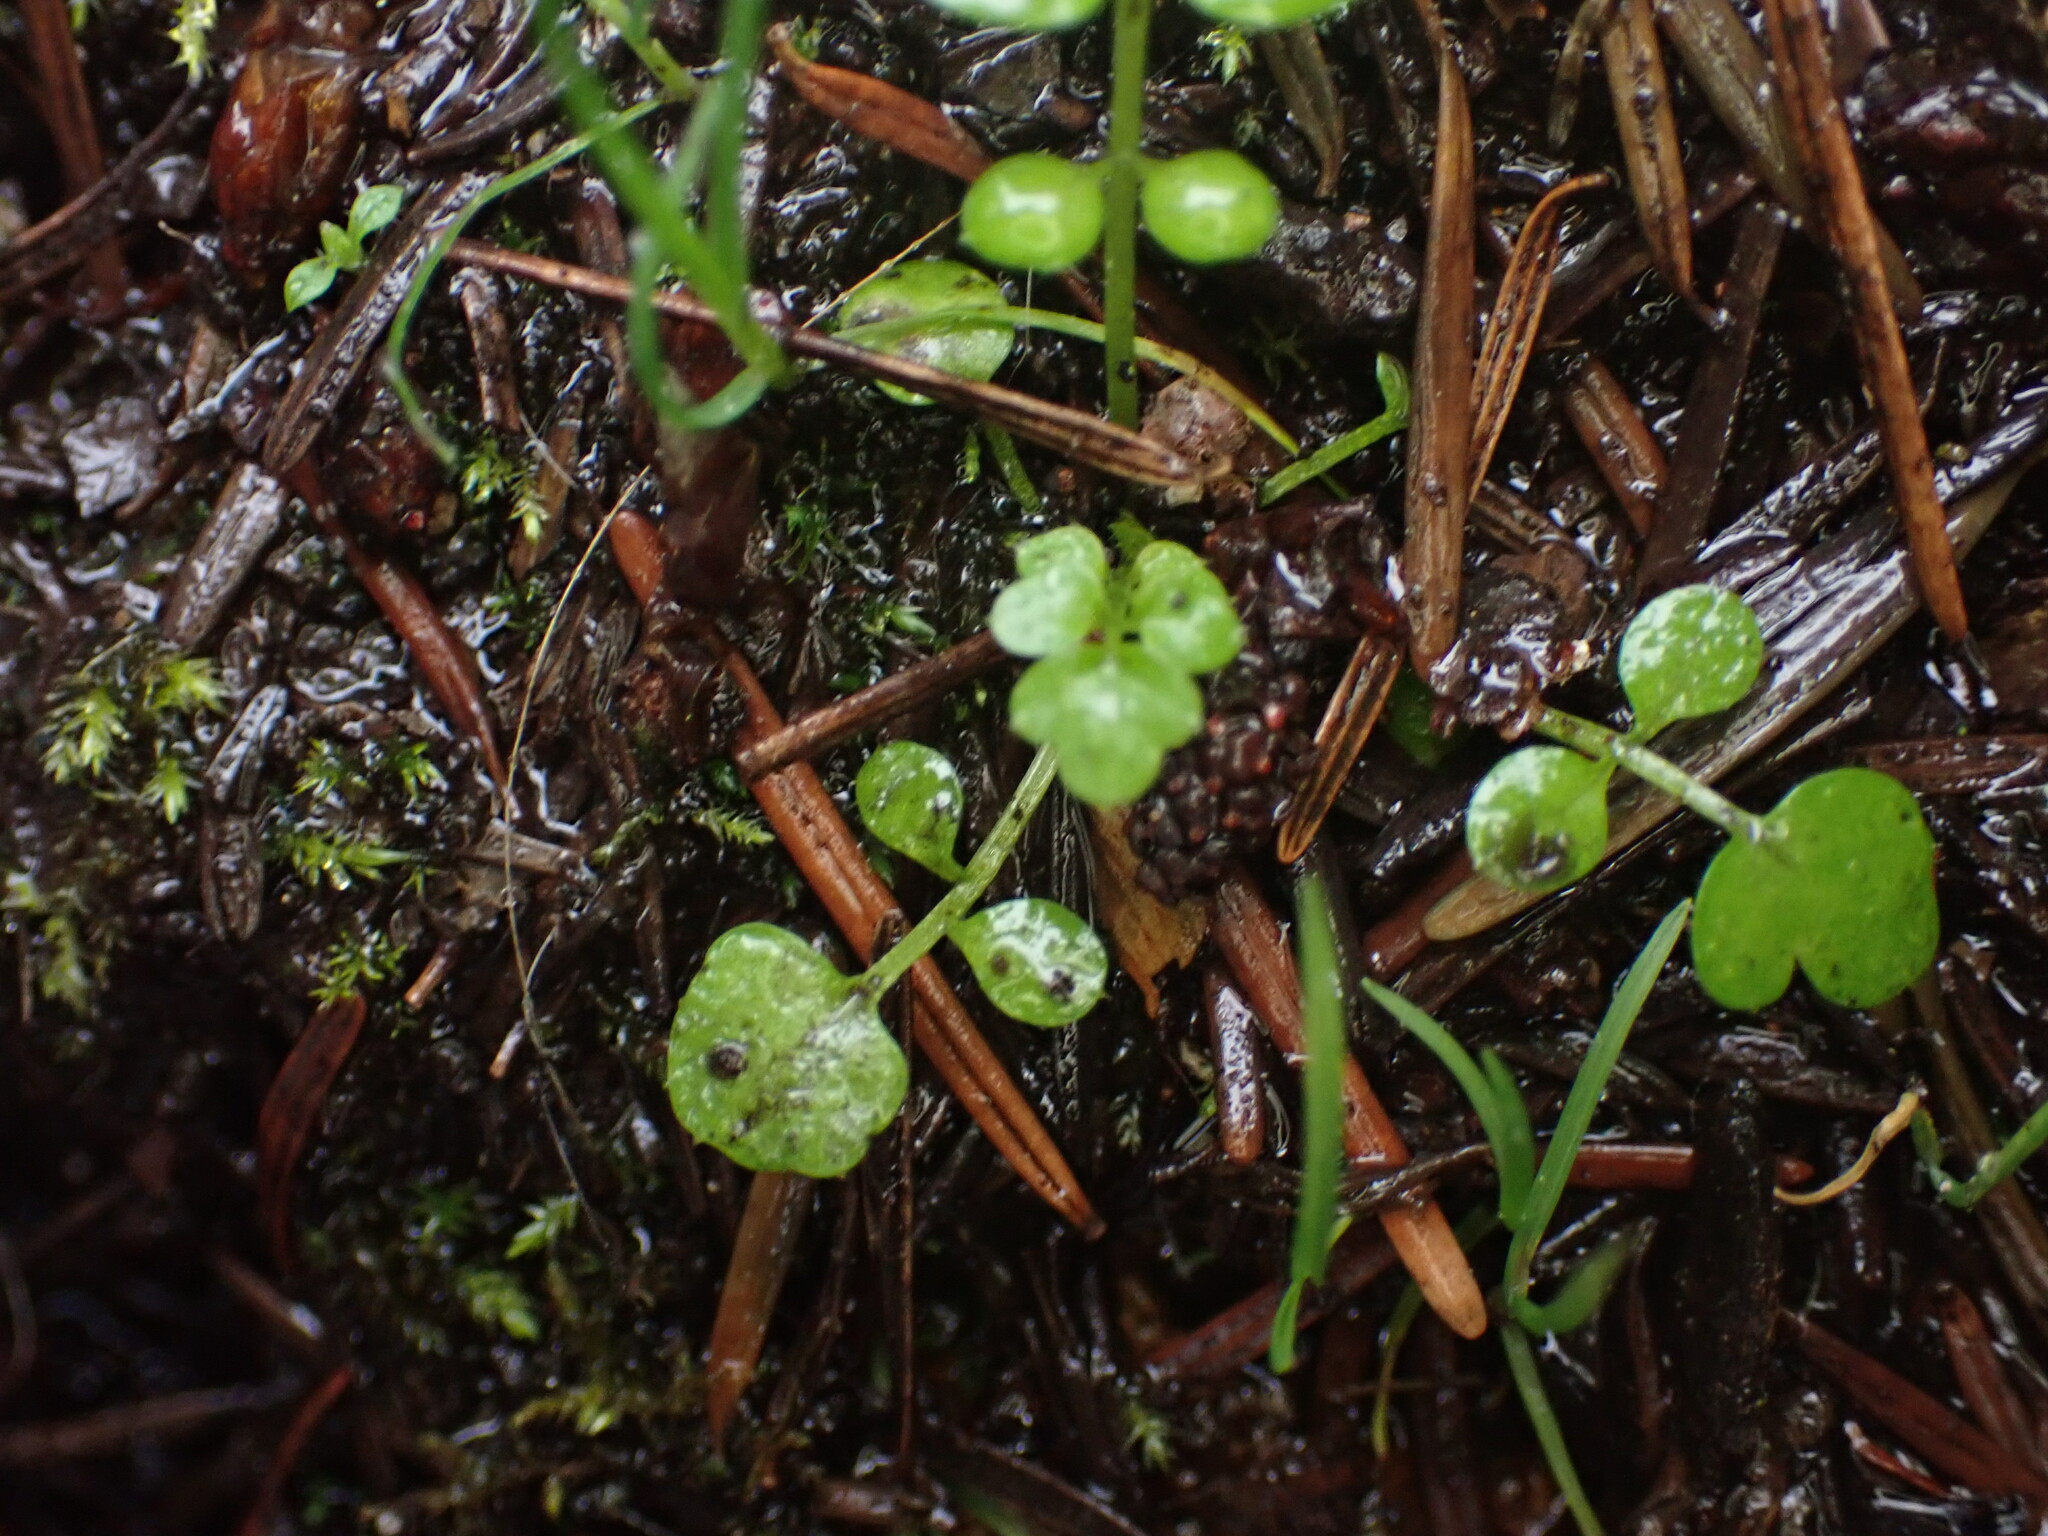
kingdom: Plantae
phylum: Tracheophyta
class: Magnoliopsida
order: Brassicales
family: Brassicaceae
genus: Cardamine
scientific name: Cardamine oligosperma
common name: Idaho bittercress
